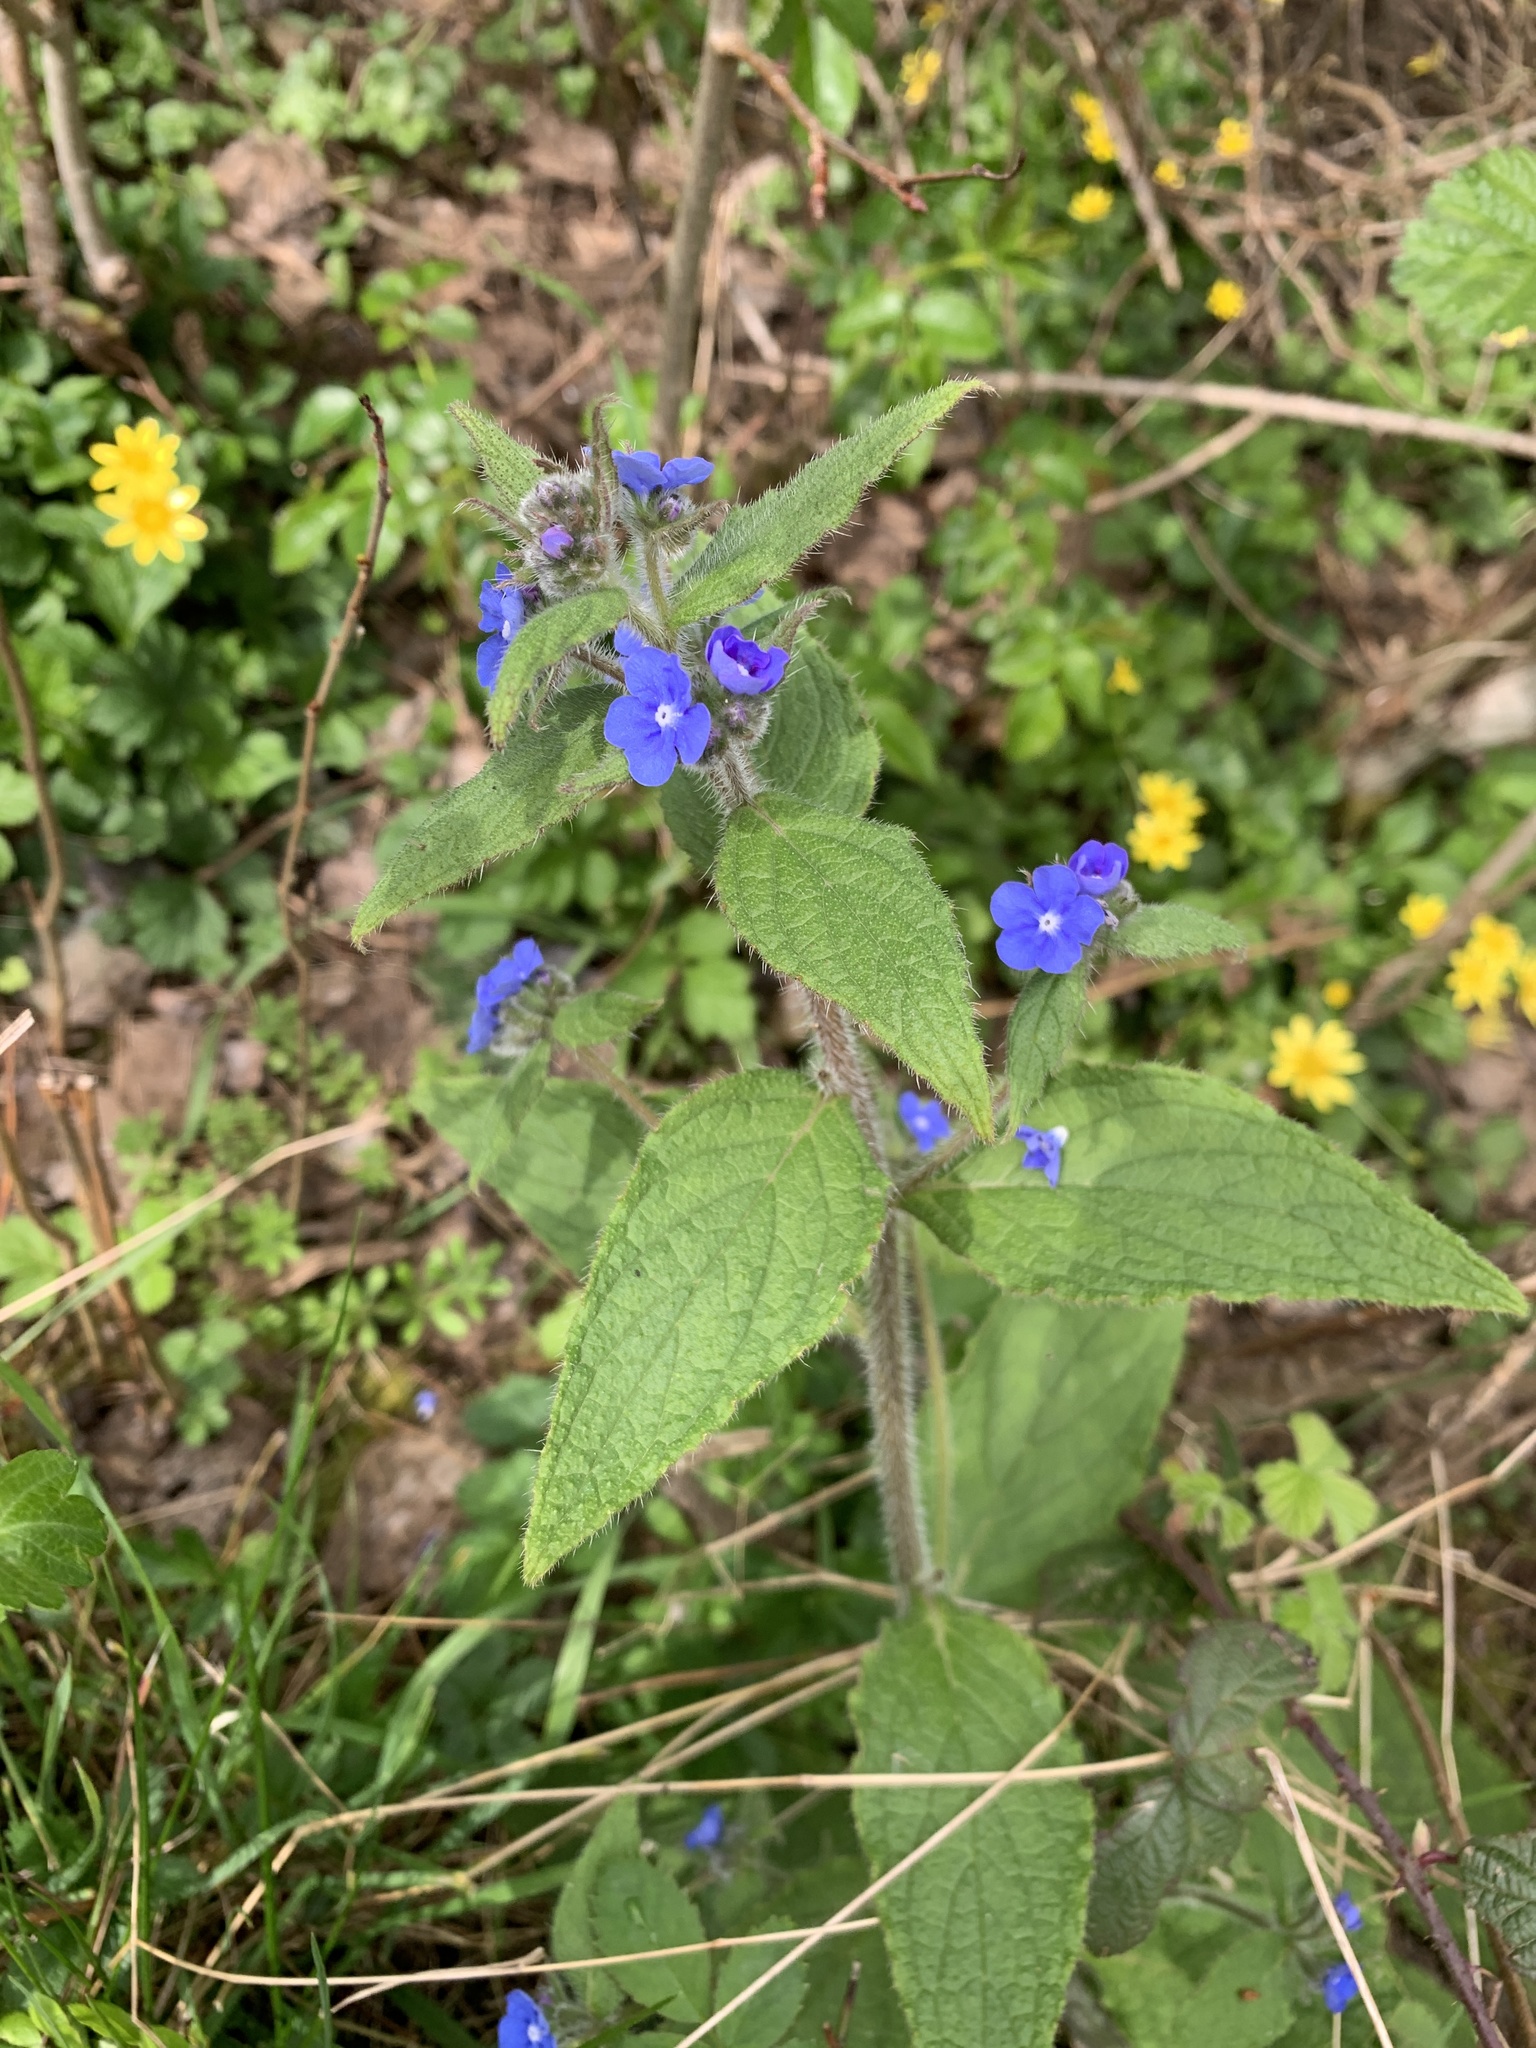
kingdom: Plantae
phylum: Tracheophyta
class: Magnoliopsida
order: Boraginales
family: Boraginaceae
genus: Pentaglottis
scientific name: Pentaglottis sempervirens
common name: Green alkanet
